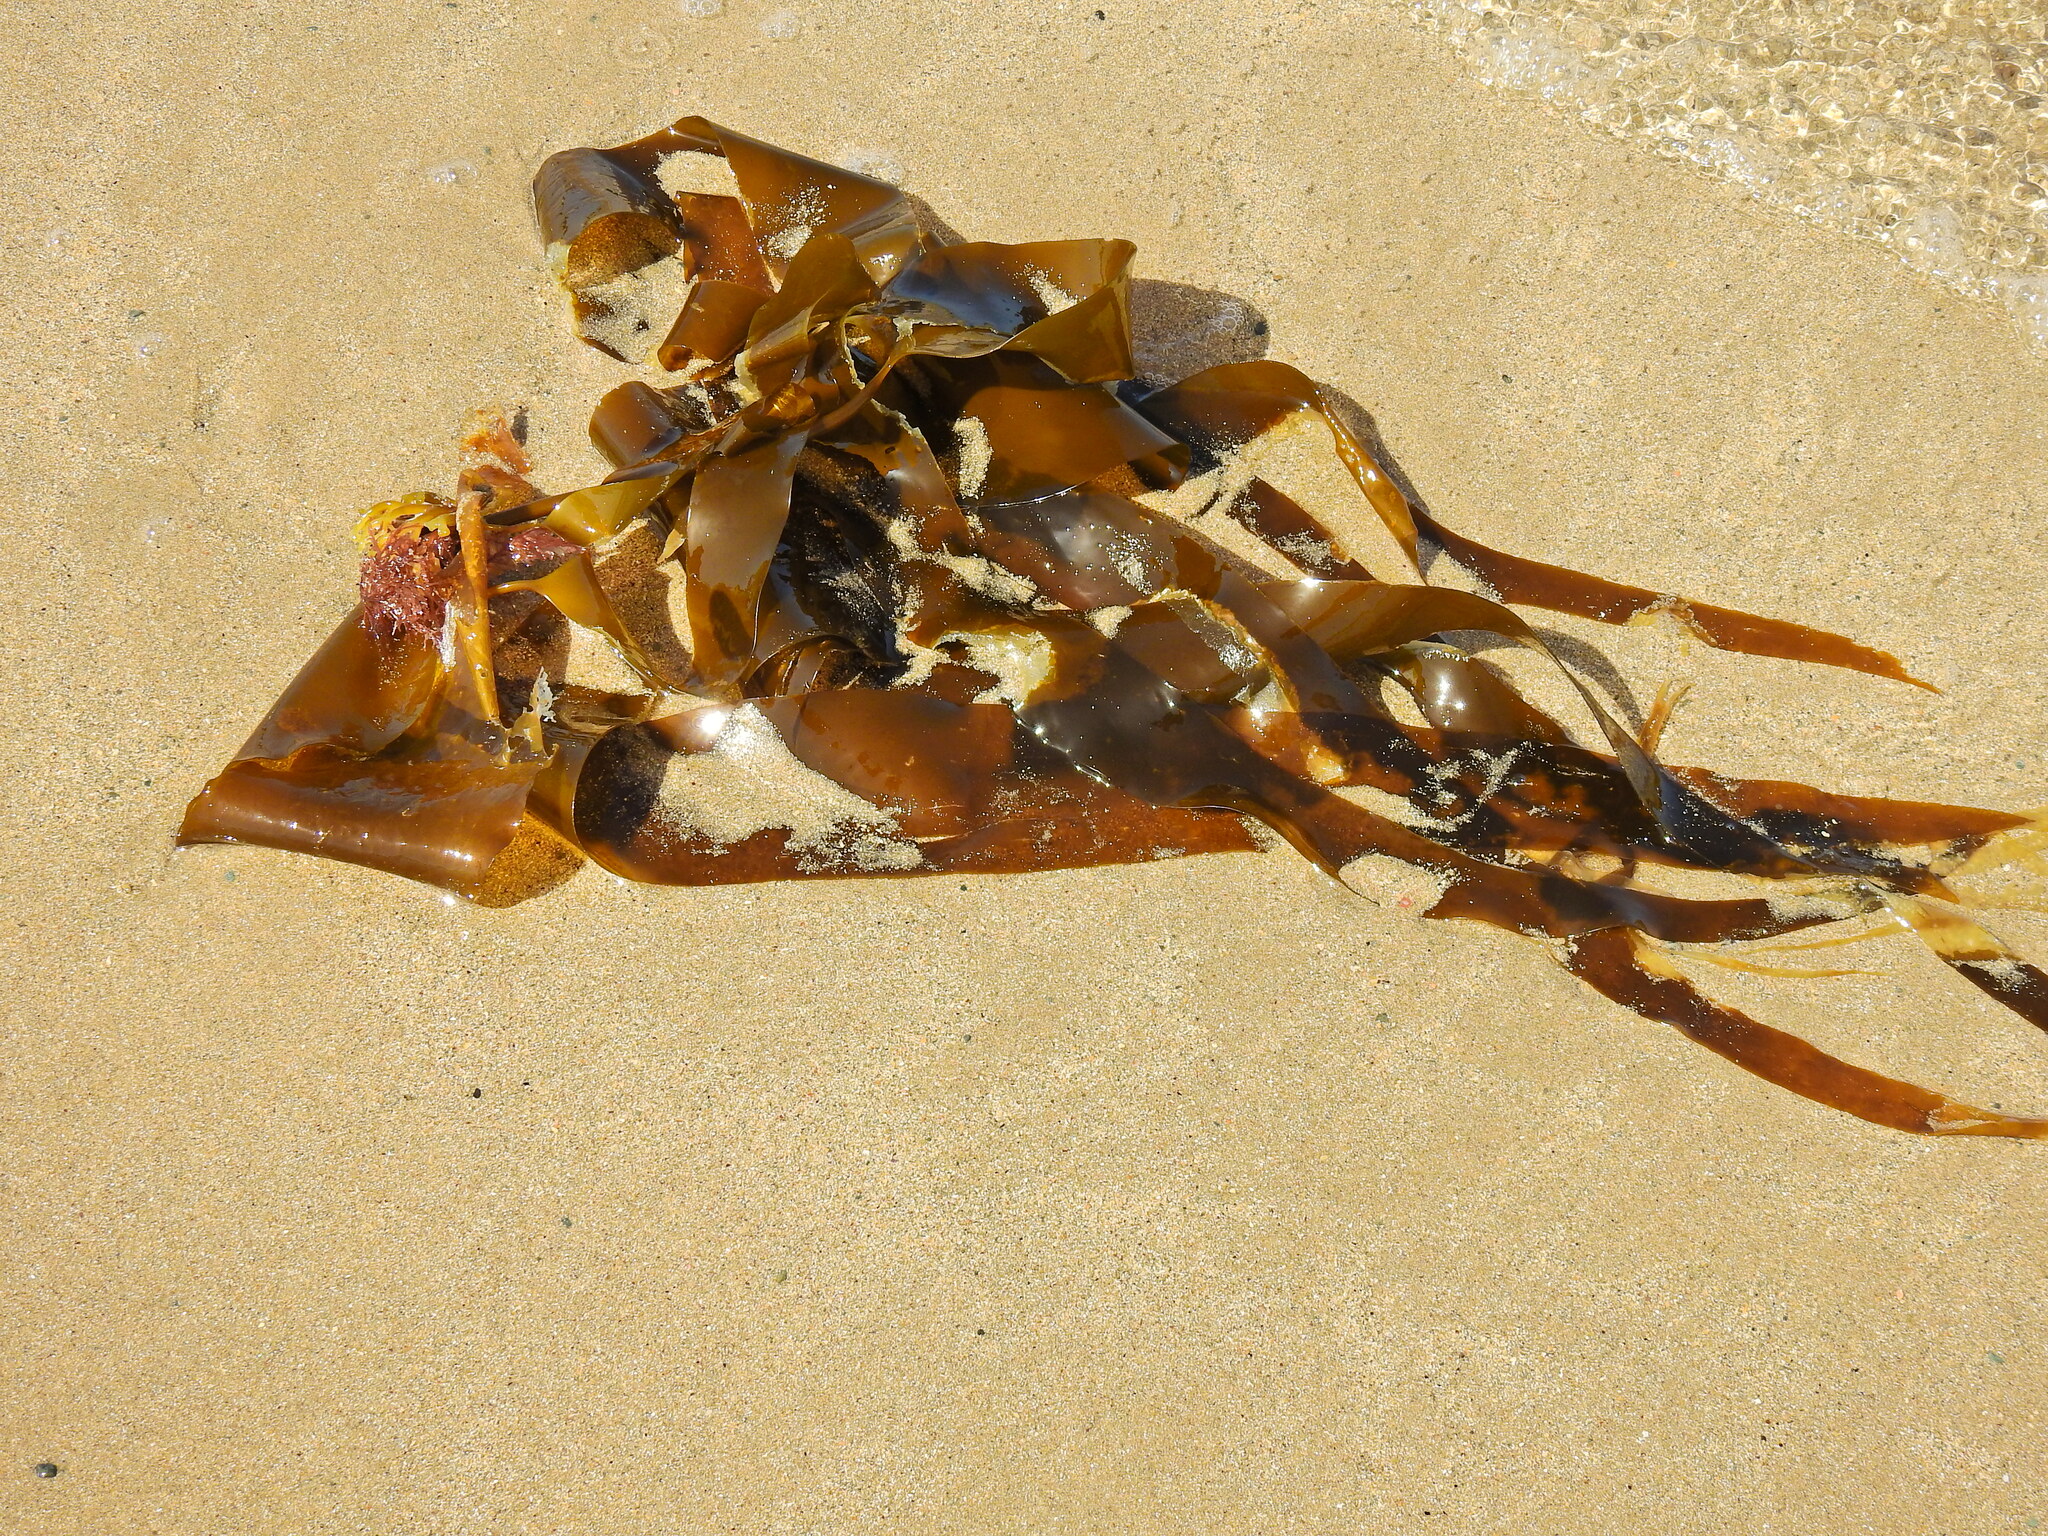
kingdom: Chromista
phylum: Ochrophyta
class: Phaeophyceae
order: Laminariales
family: Laminariaceae
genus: Laminaria
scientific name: Laminaria digitata
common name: Oarweed
